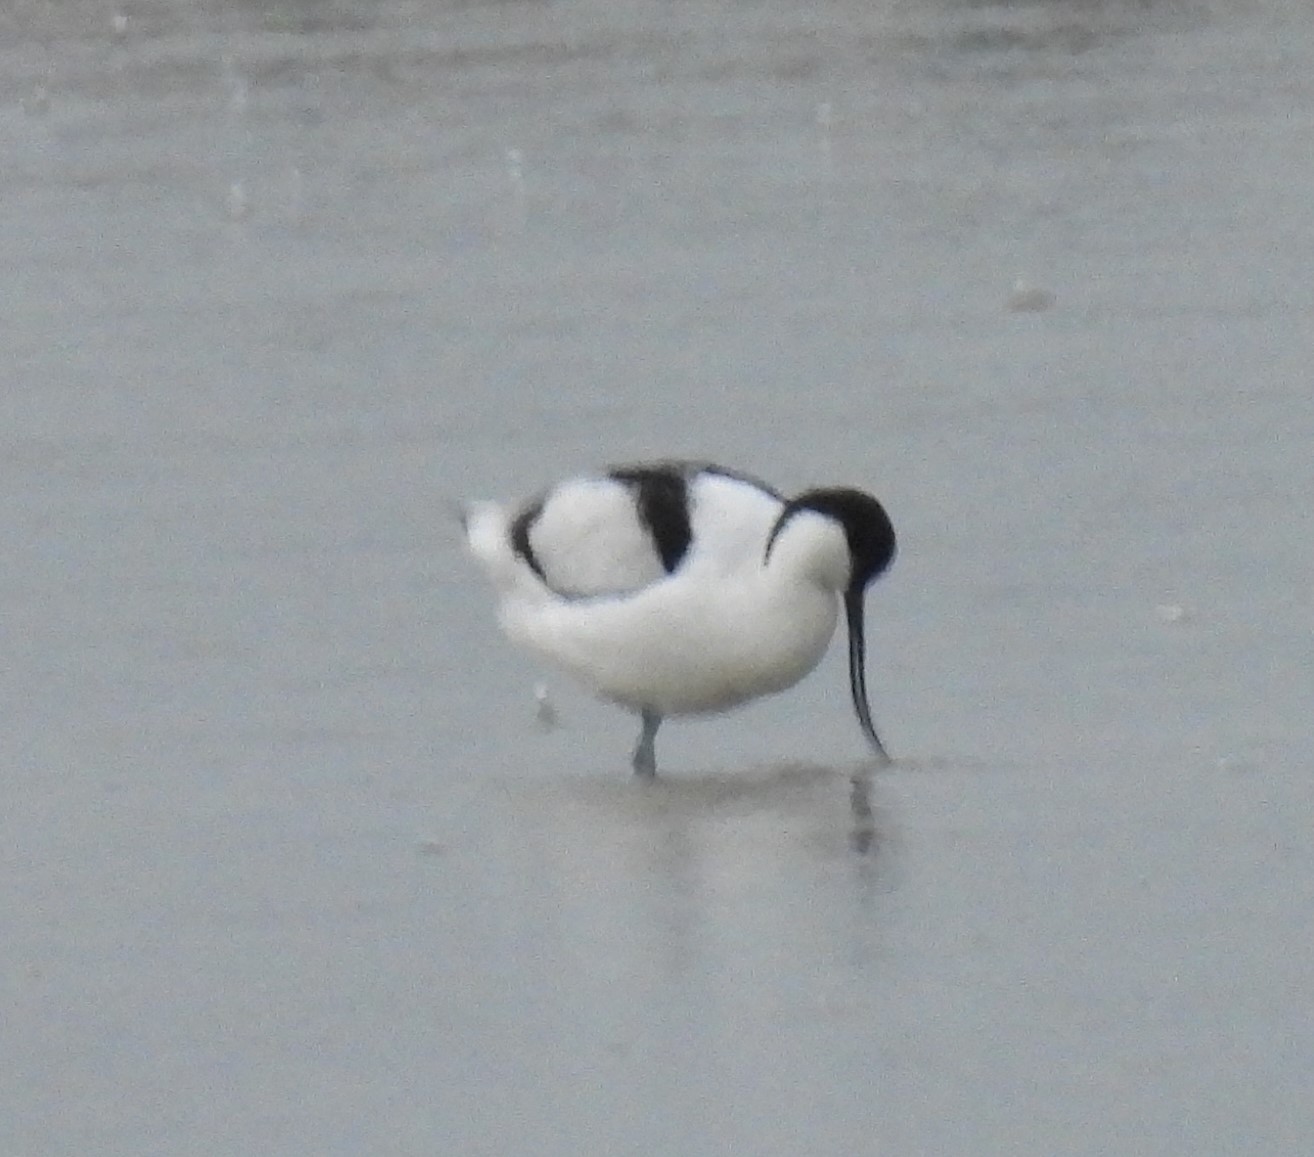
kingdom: Animalia
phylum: Chordata
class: Aves
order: Charadriiformes
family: Recurvirostridae
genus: Recurvirostra
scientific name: Recurvirostra avosetta
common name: Pied avocet
